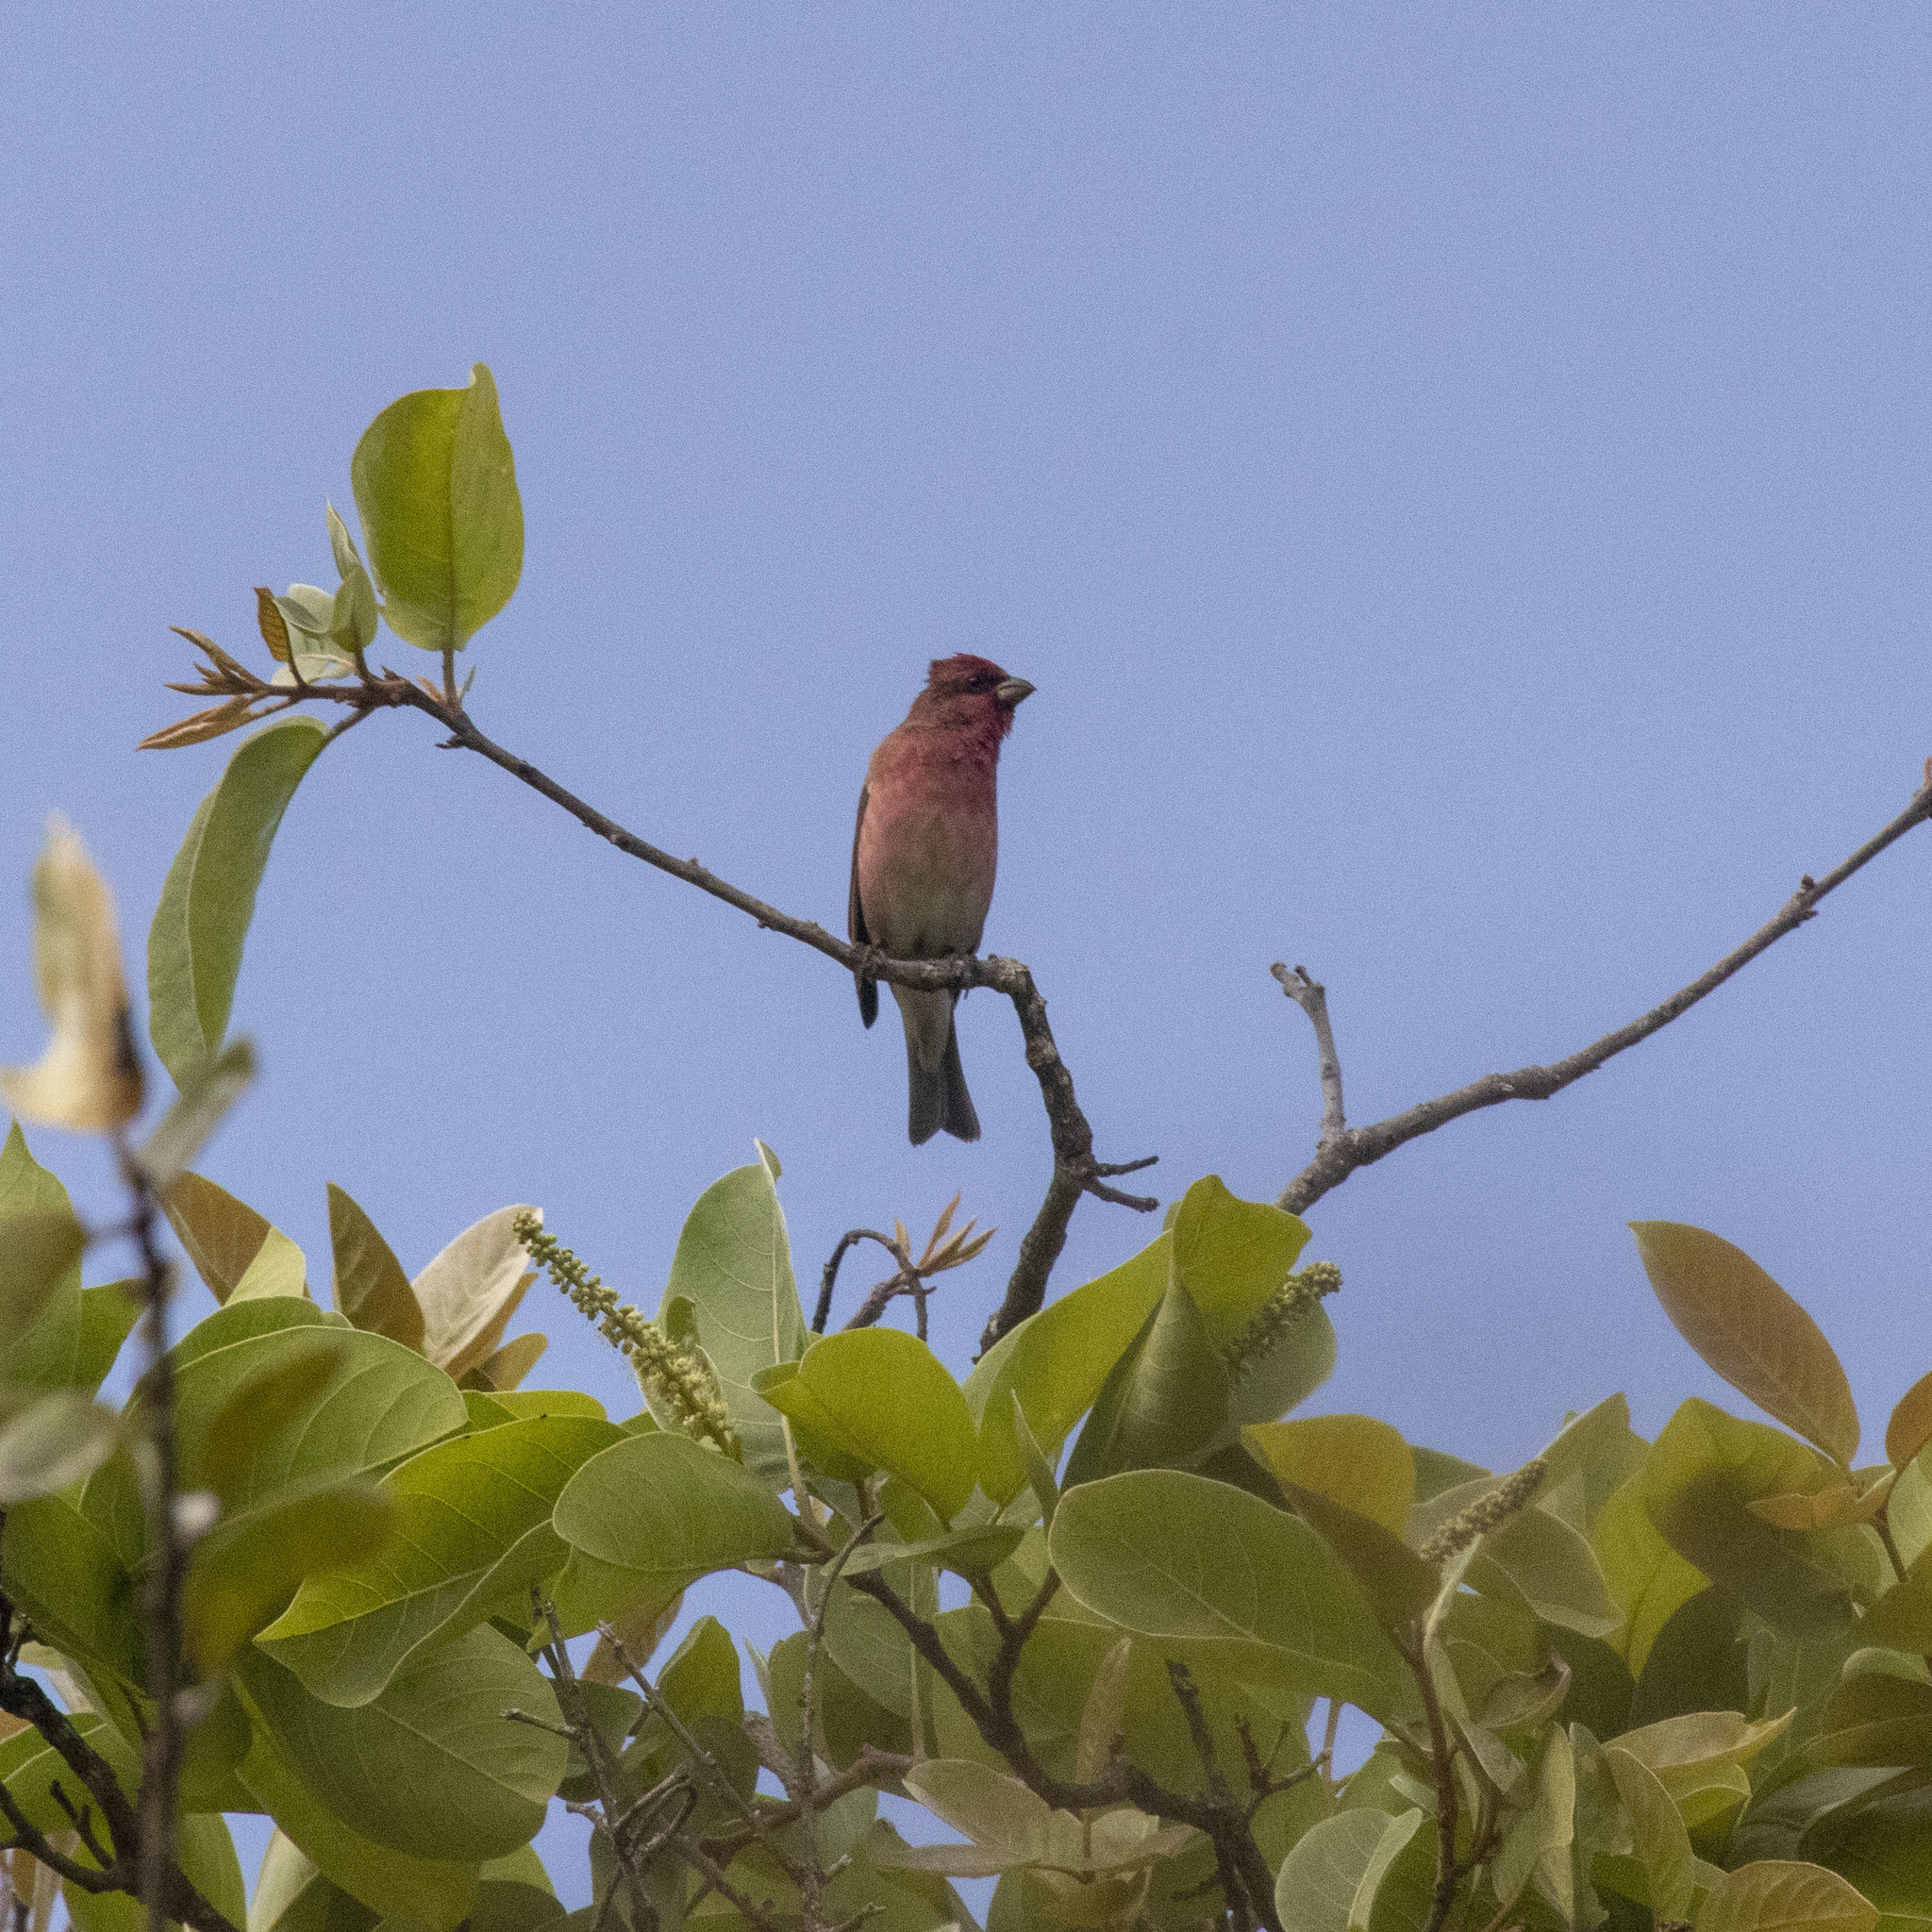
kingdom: Animalia
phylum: Chordata
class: Aves
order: Passeriformes
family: Fringillidae
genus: Carpodacus
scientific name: Carpodacus erythrinus
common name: Common rosefinch
